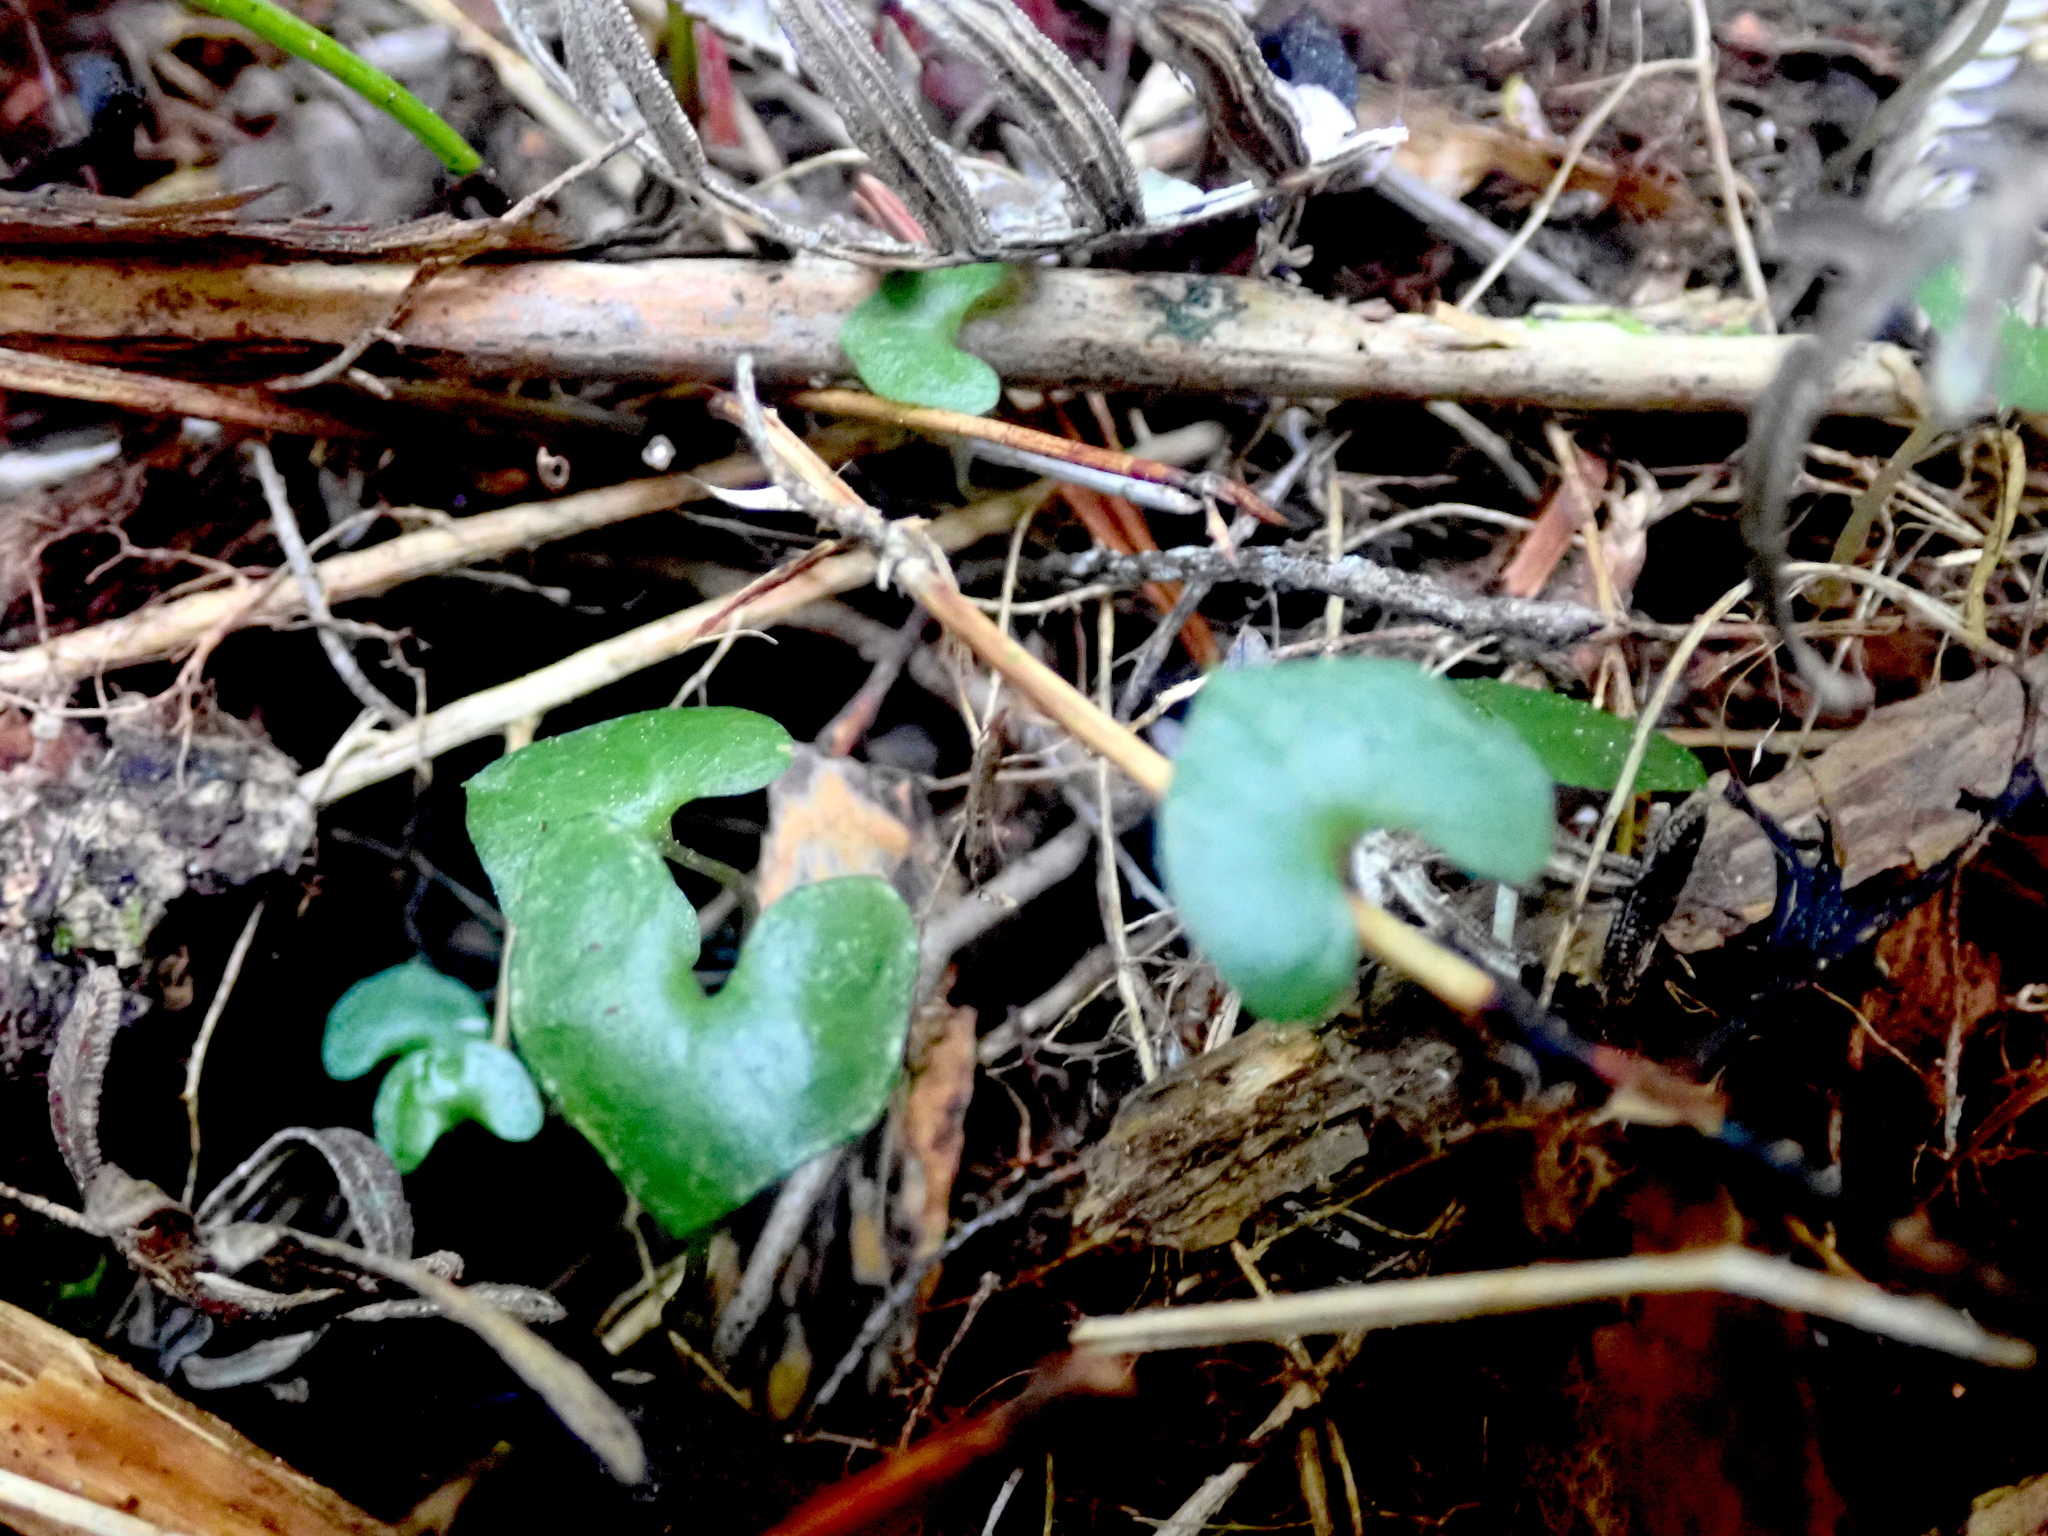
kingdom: Plantae
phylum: Tracheophyta
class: Liliopsida
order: Asparagales
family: Orchidaceae
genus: Acianthus
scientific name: Acianthus sinclairii
